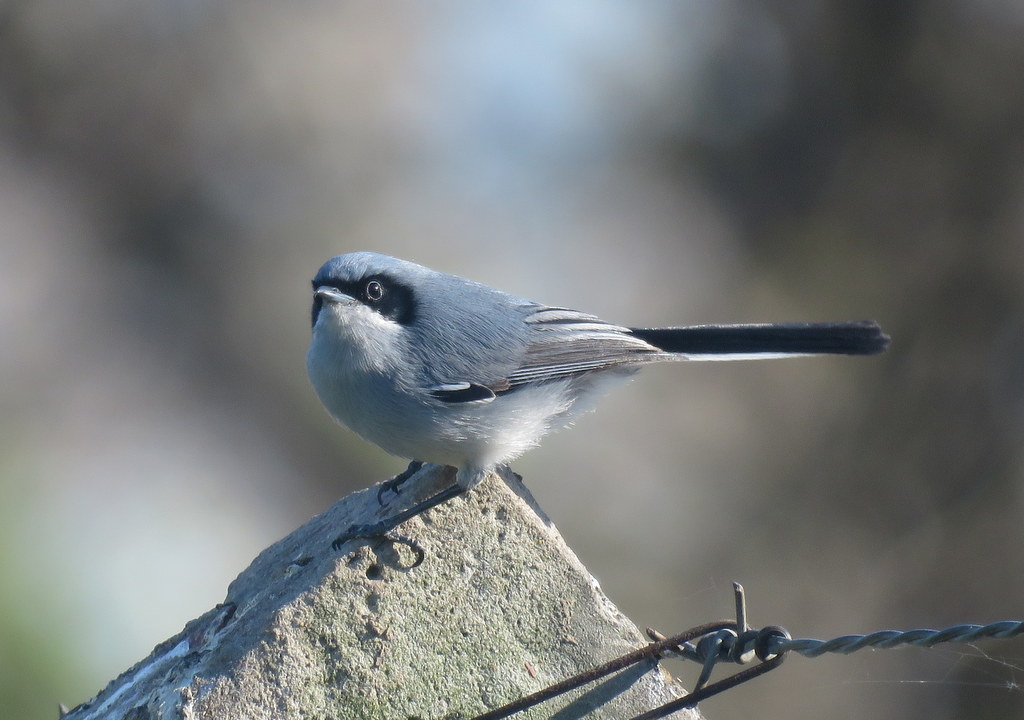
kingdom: Animalia
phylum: Chordata
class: Aves
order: Passeriformes
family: Polioptilidae
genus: Polioptila
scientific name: Polioptila dumicola
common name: Masked gnatcatcher
